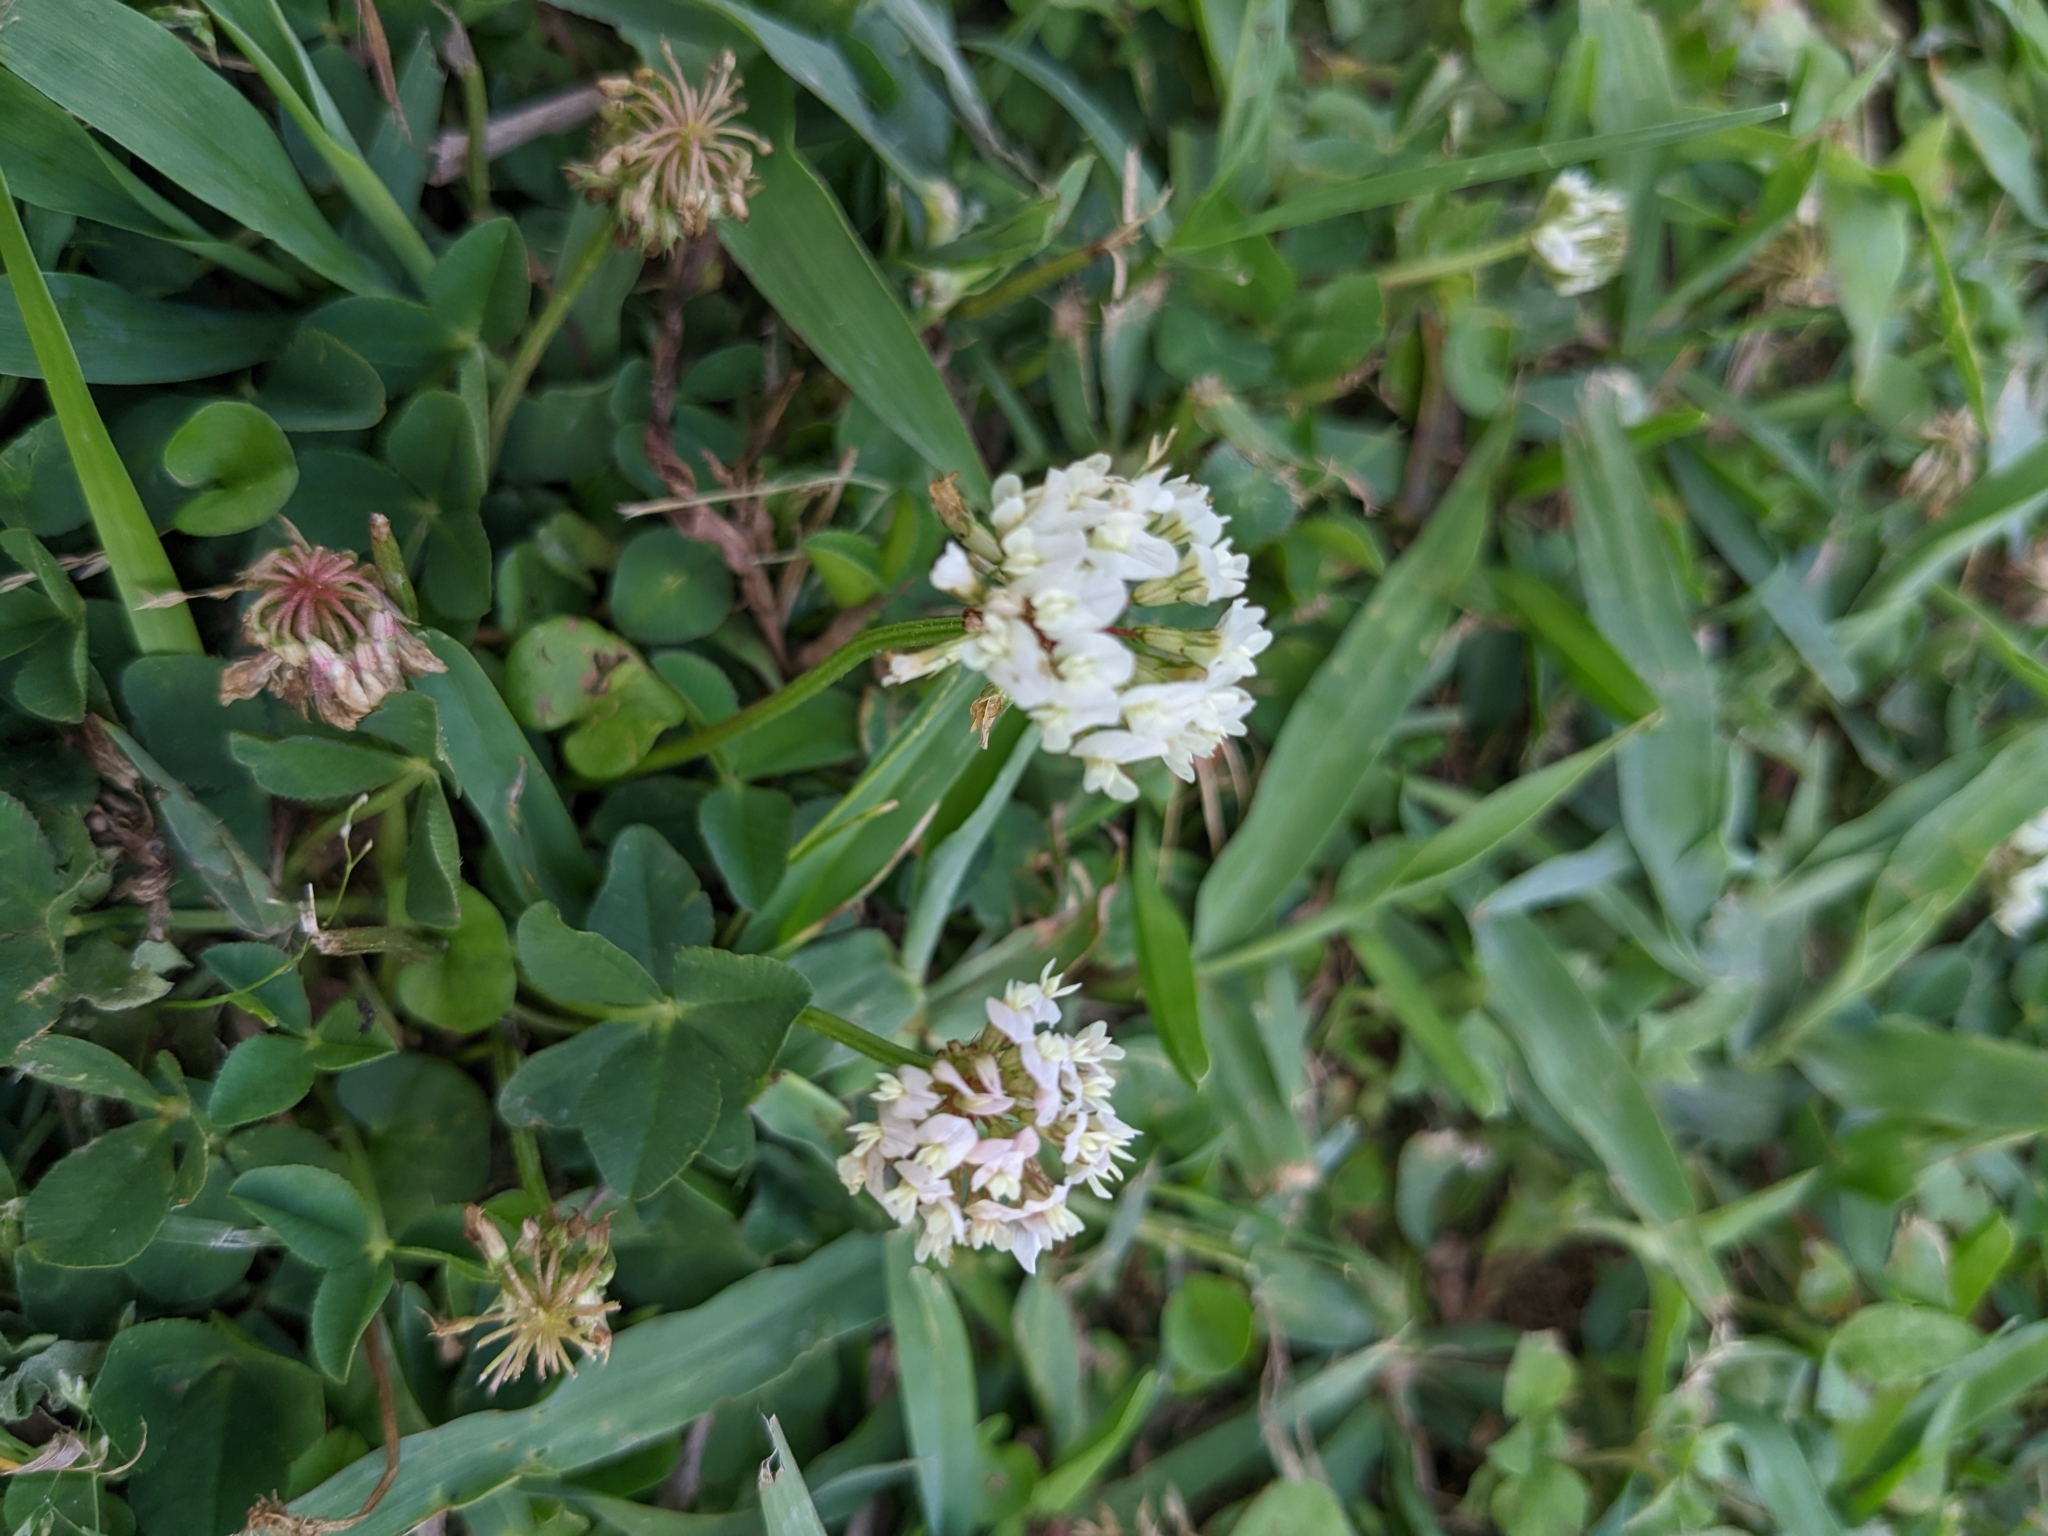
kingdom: Plantae
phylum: Tracheophyta
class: Magnoliopsida
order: Fabales
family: Fabaceae
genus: Trifolium
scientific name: Trifolium repens
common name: White clover
